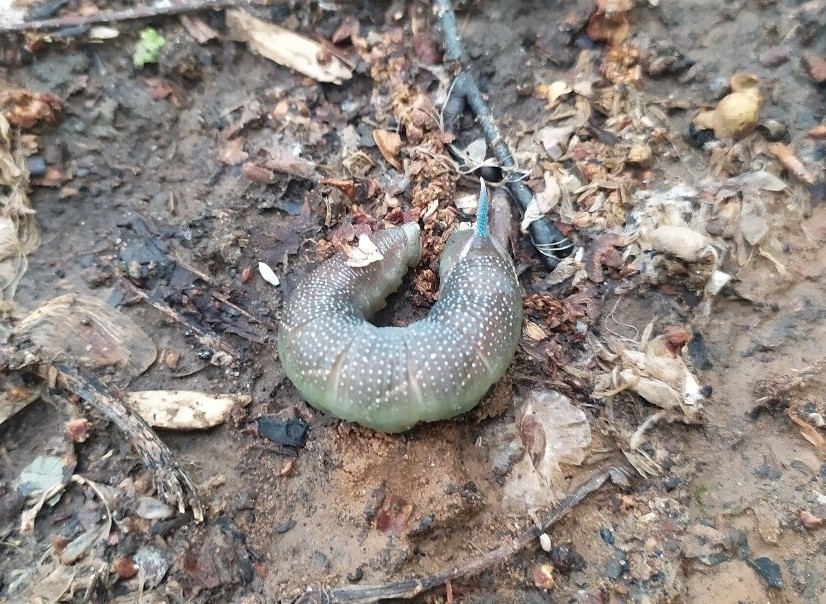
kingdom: Animalia
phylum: Arthropoda
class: Insecta
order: Lepidoptera
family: Sphingidae
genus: Mimas
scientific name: Mimas tiliae
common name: Lime hawk-moth
